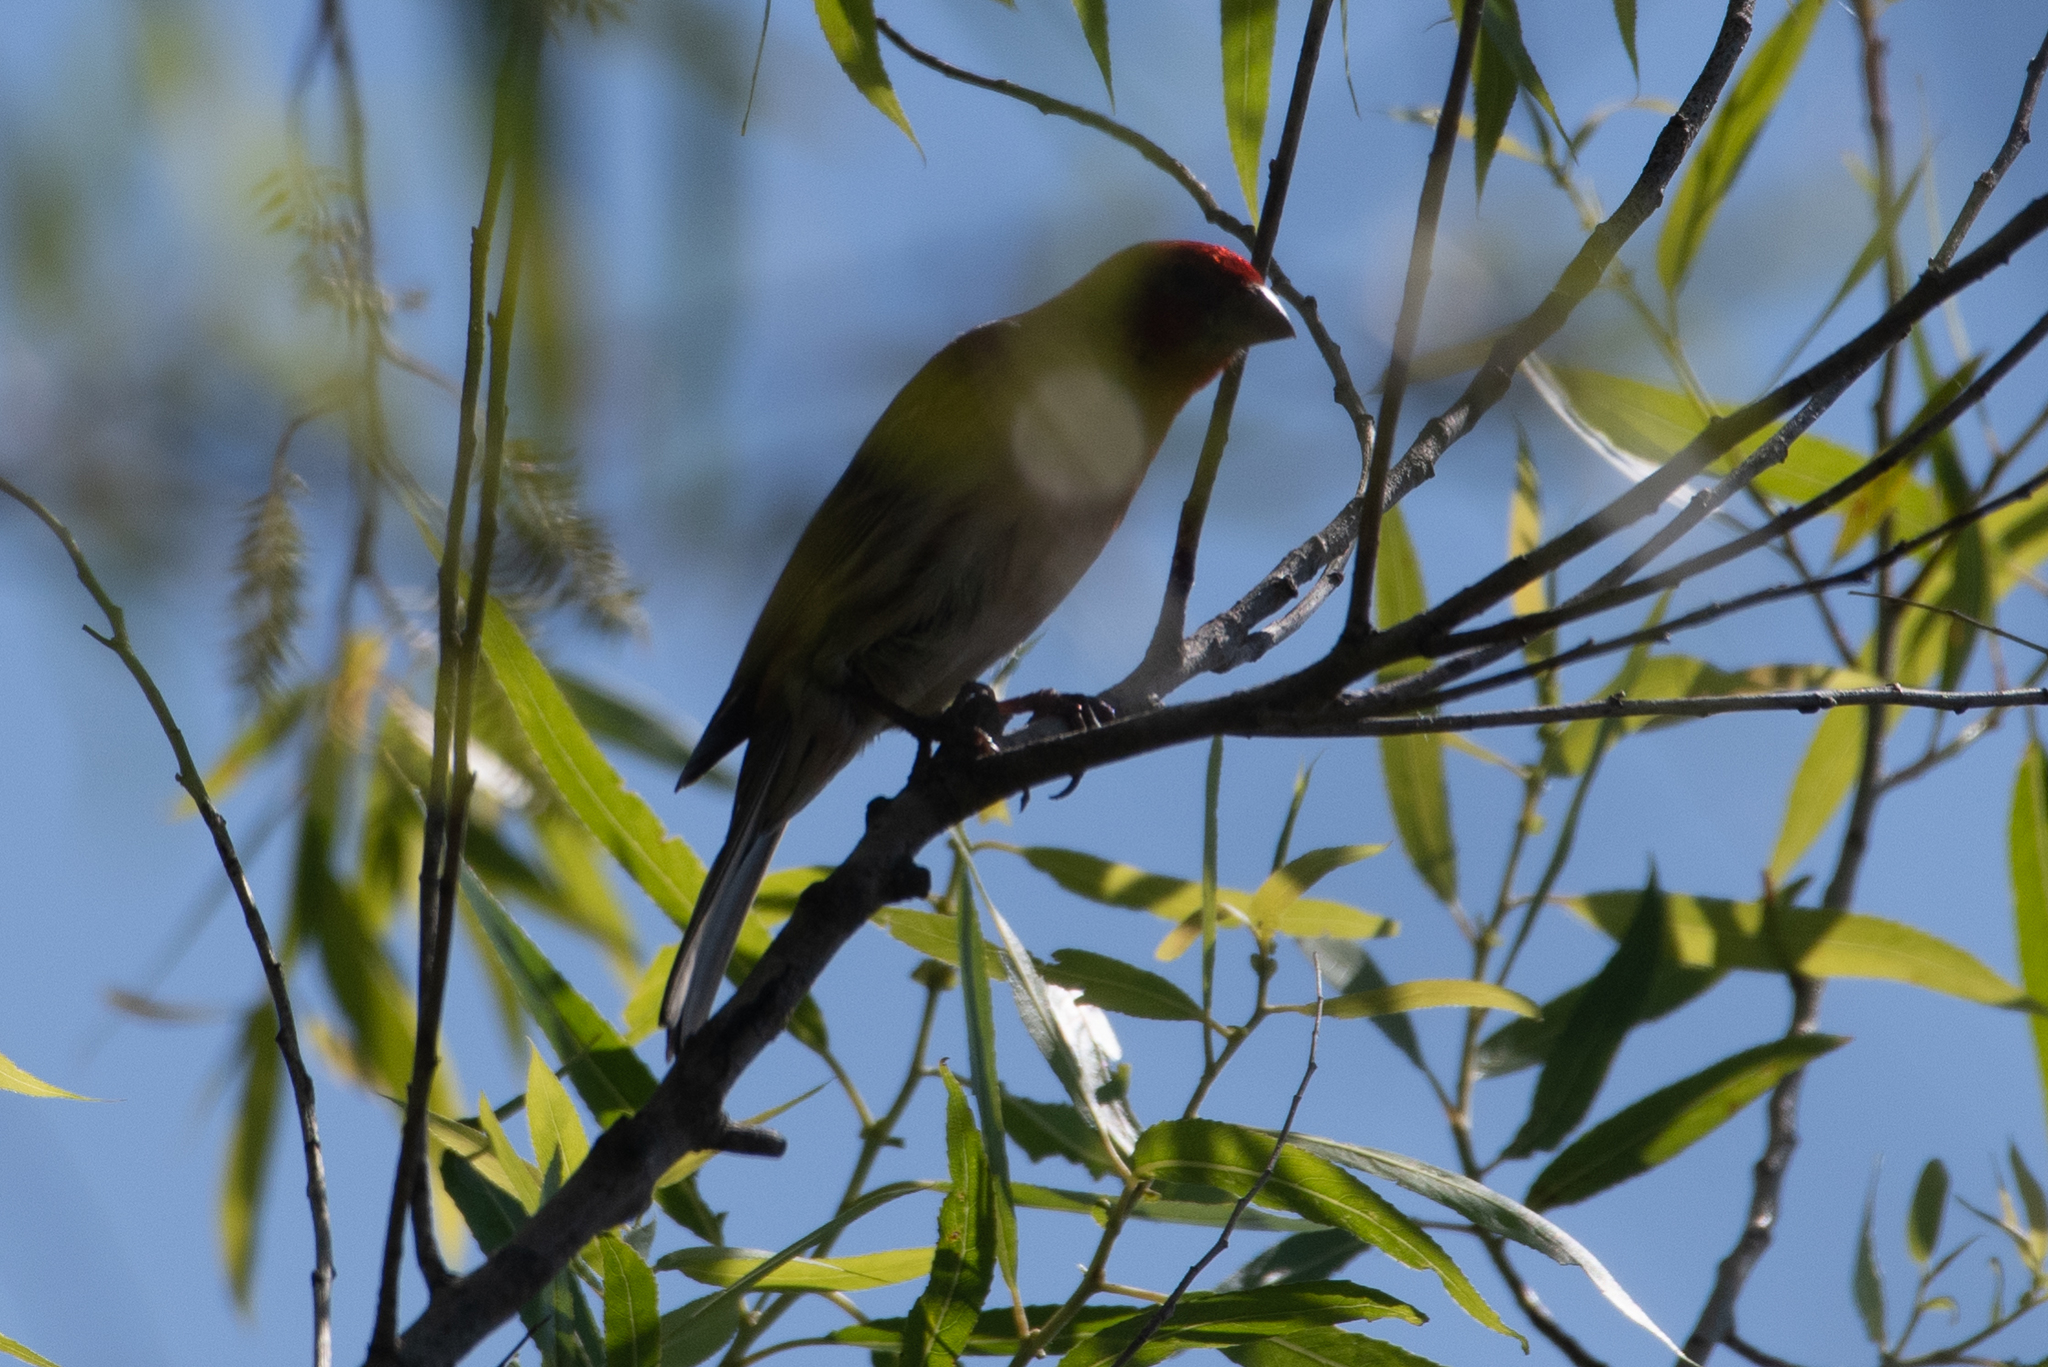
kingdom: Animalia
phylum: Chordata
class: Aves
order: Passeriformes
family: Fringillidae
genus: Haemorhous
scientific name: Haemorhous mexicanus
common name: House finch
